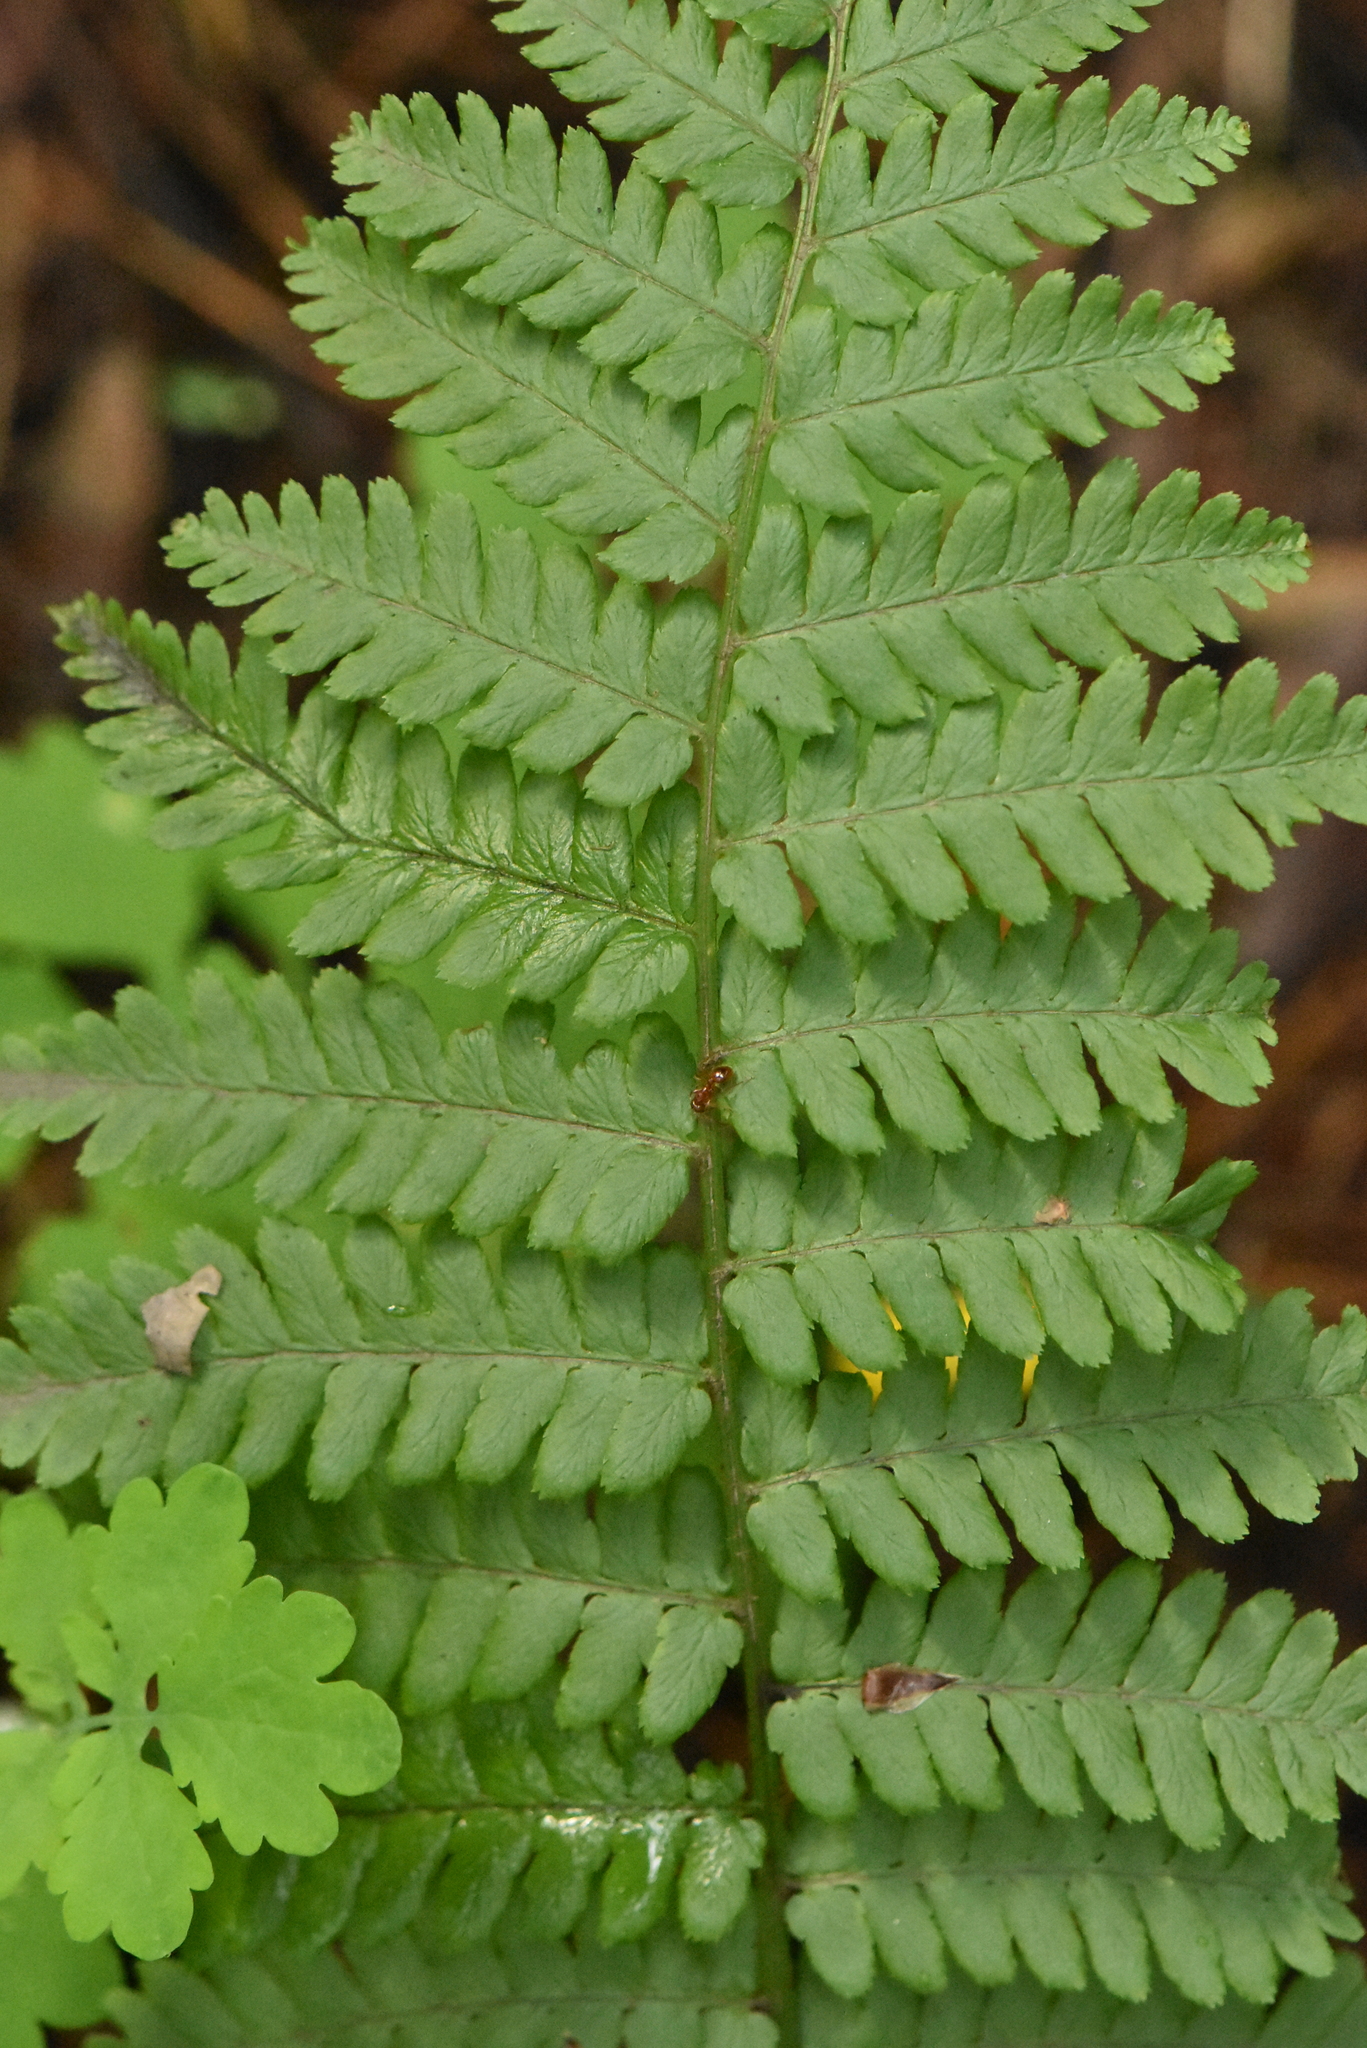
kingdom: Plantae
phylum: Tracheophyta
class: Polypodiopsida
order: Polypodiales
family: Dryopteridaceae
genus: Dryopteris
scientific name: Dryopteris filix-mas
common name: Male fern
